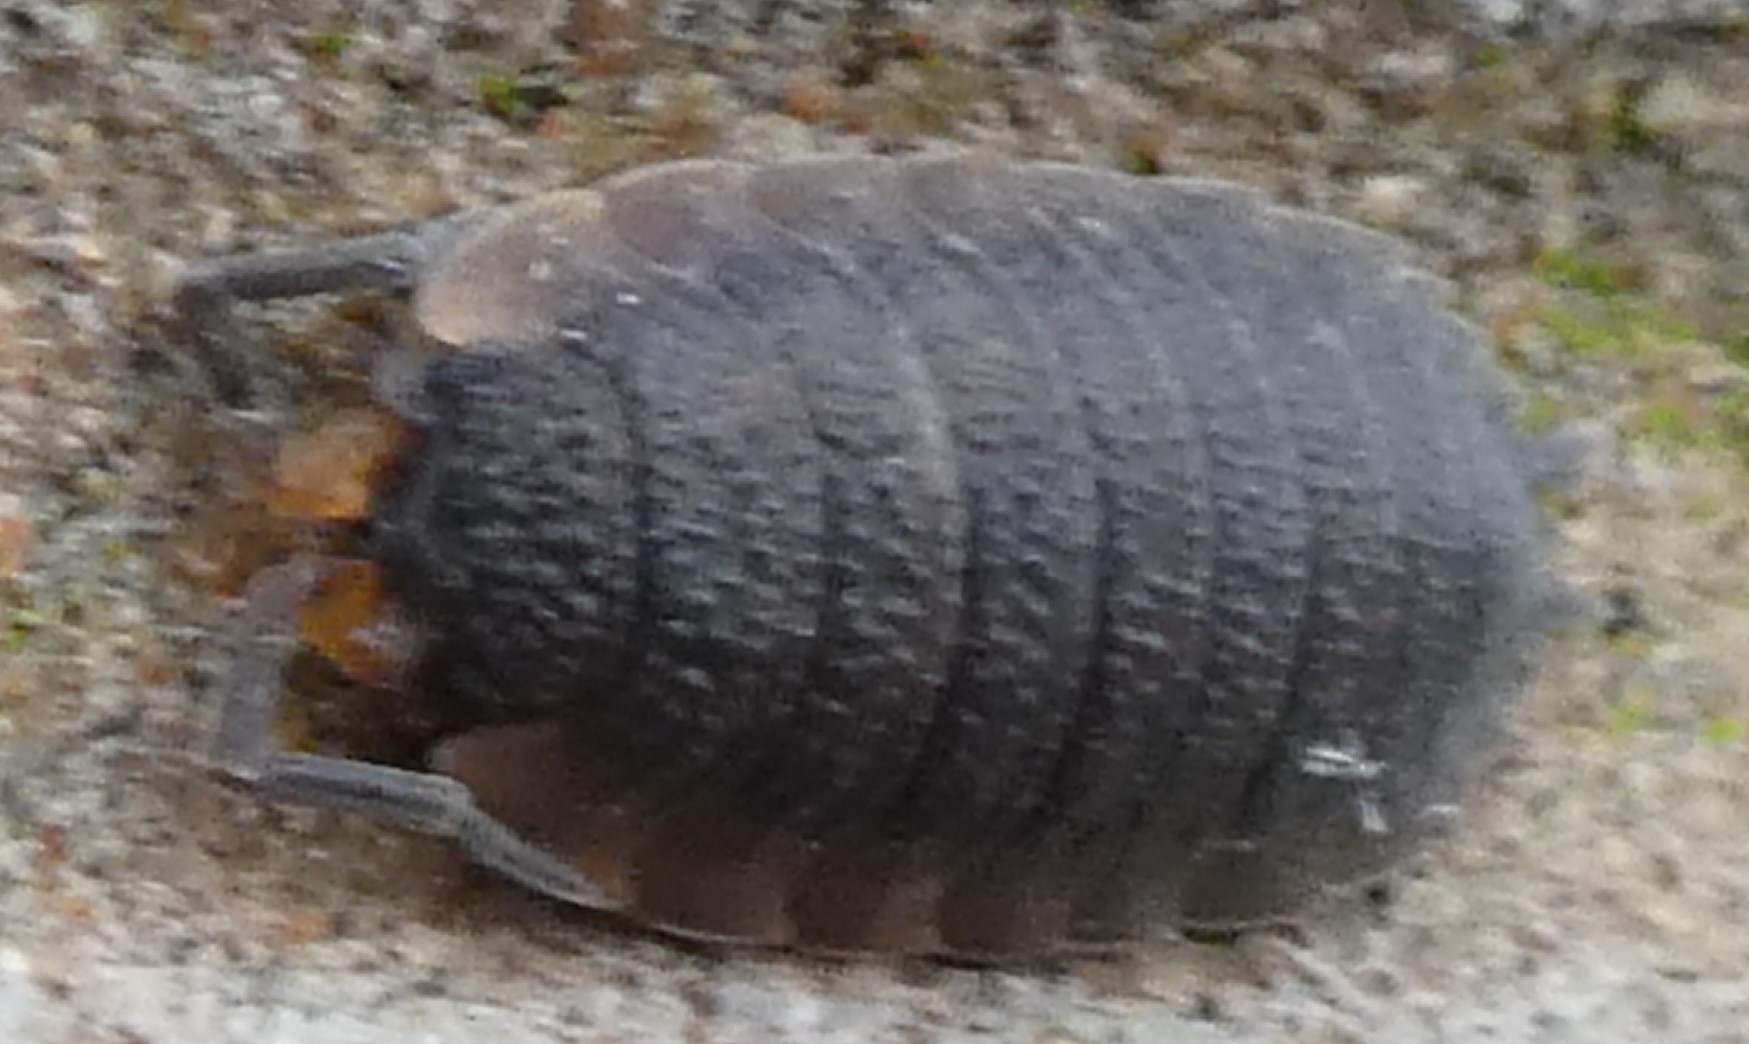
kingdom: Animalia
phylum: Arthropoda
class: Malacostraca
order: Isopoda
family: Porcellionidae
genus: Porcellio
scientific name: Porcellio scaber
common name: Common rough woodlouse
